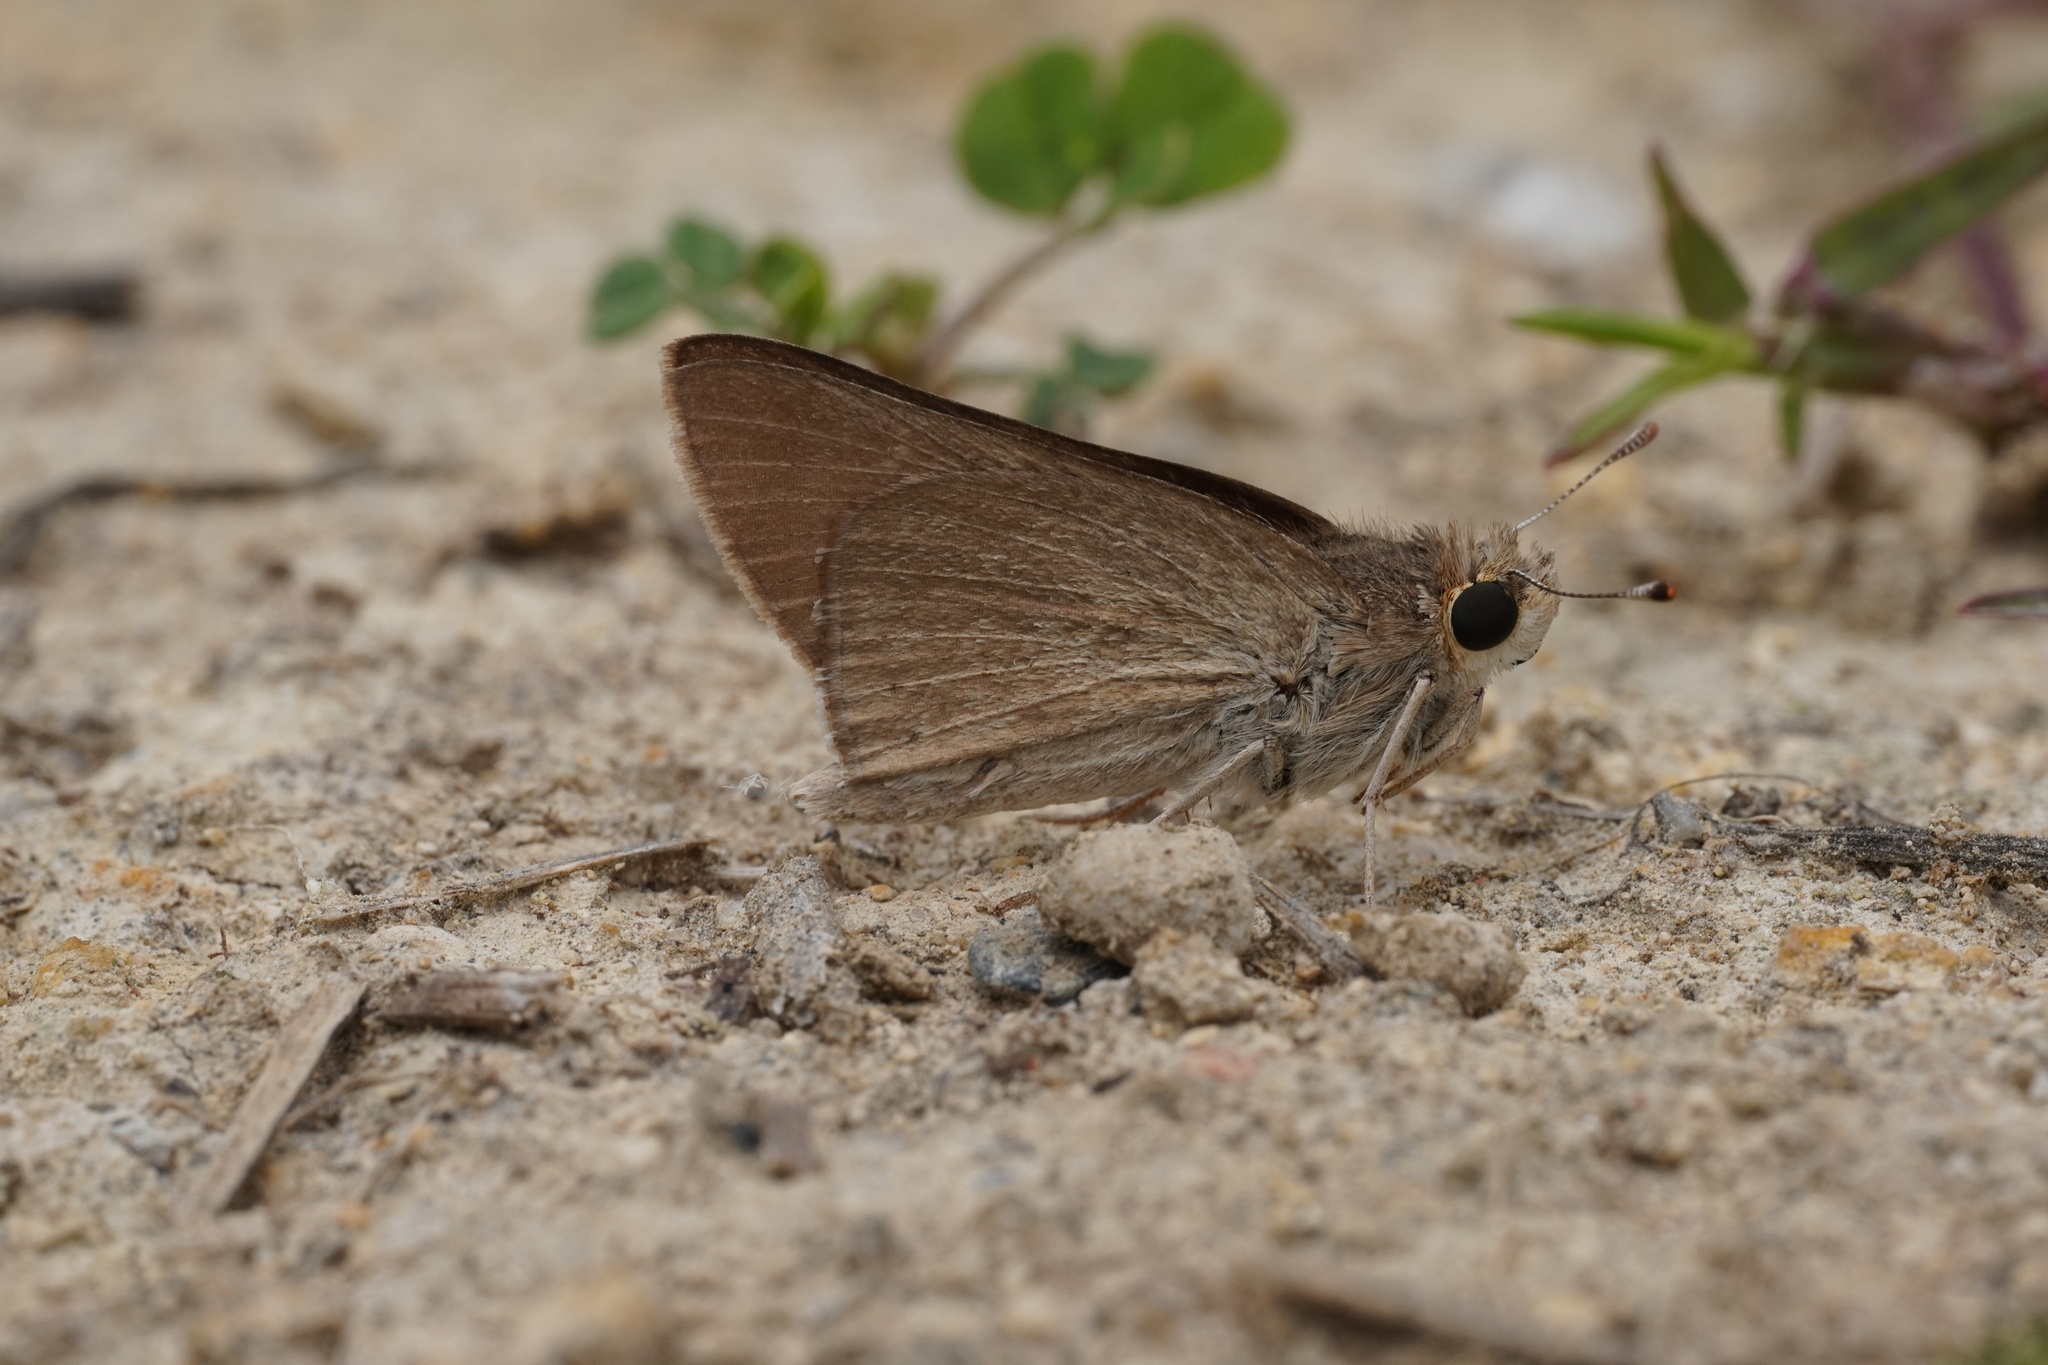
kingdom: Animalia
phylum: Arthropoda
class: Insecta
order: Lepidoptera
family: Hesperiidae
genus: Gegenes
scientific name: Gegenes nostrodamus
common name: Mediterranean skipper
